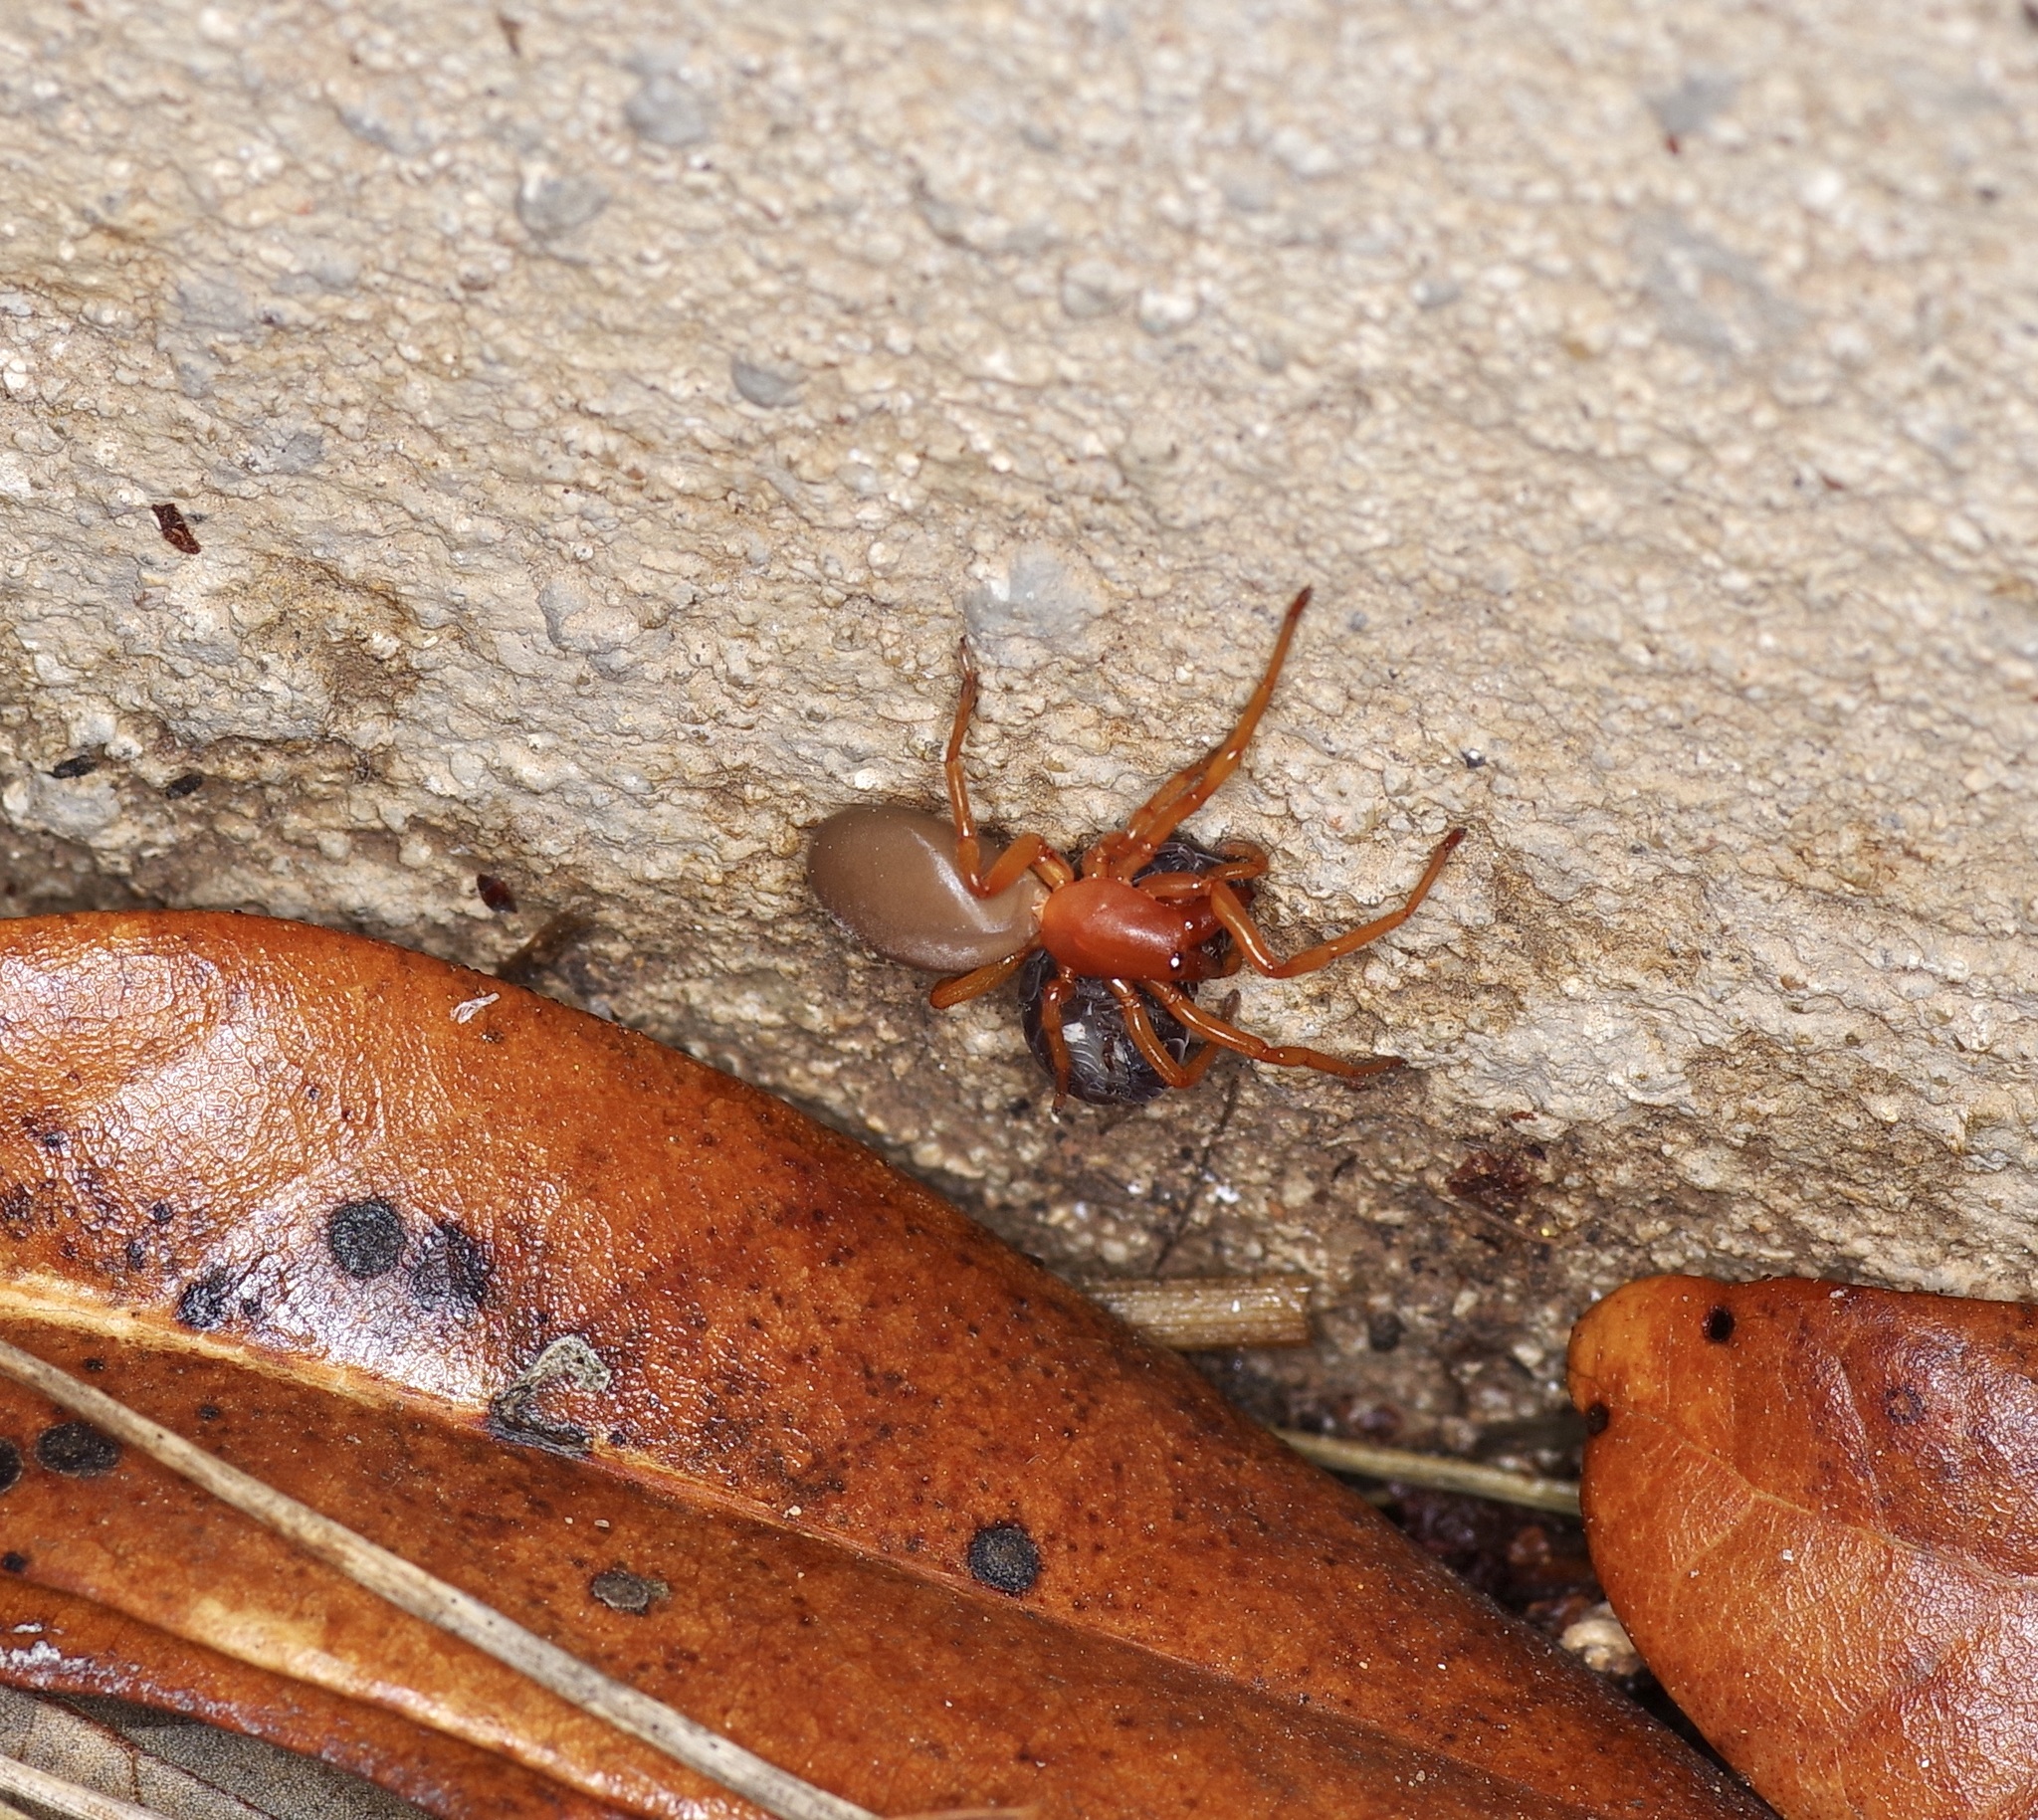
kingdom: Animalia
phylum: Arthropoda
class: Arachnida
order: Araneae
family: Dysderidae
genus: Dysdera
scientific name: Dysdera crocata
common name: Woodlouse spider
